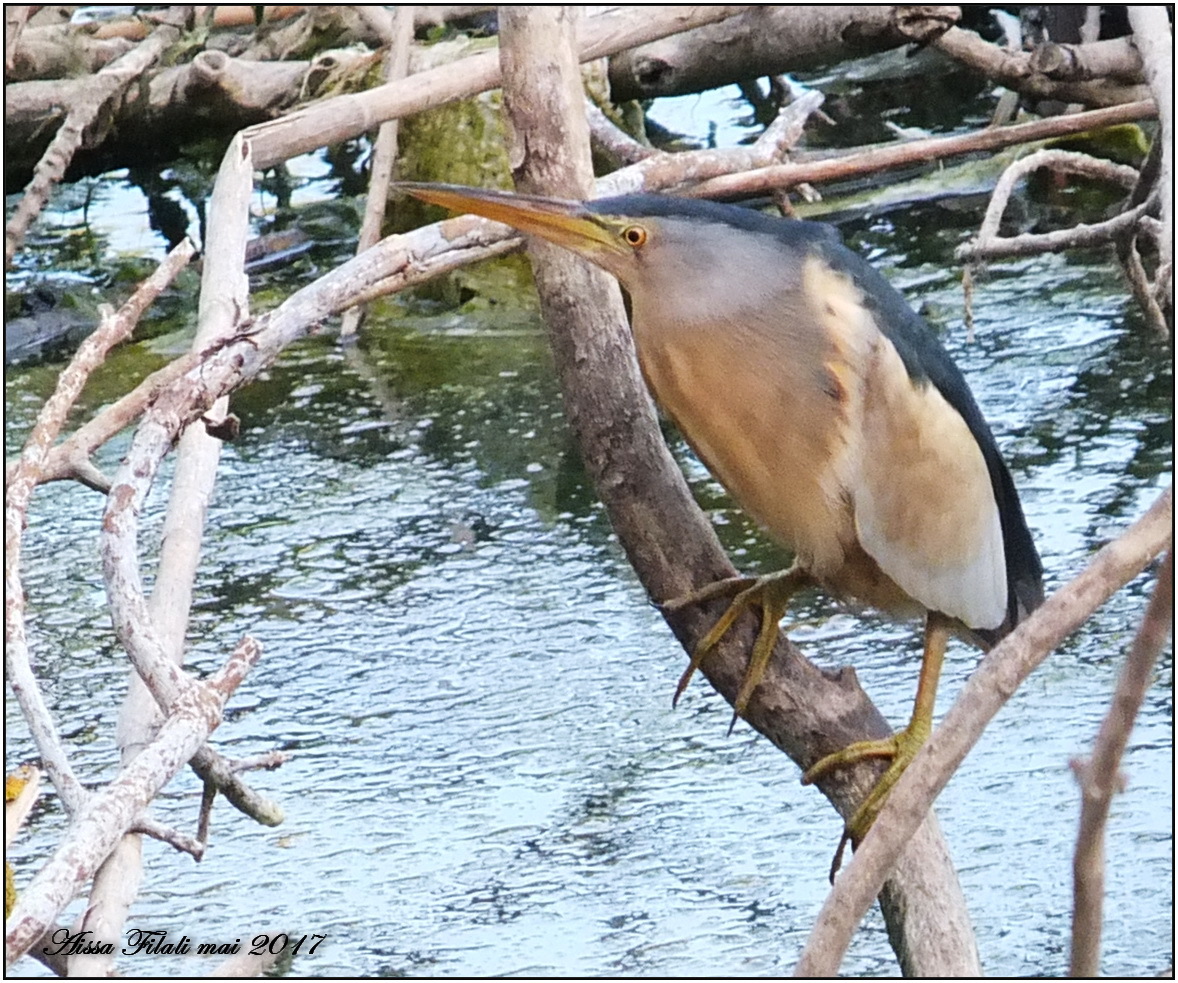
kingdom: Animalia
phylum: Chordata
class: Aves
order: Pelecaniformes
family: Ardeidae
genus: Ixobrychus
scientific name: Ixobrychus minutus
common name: Little bittern
